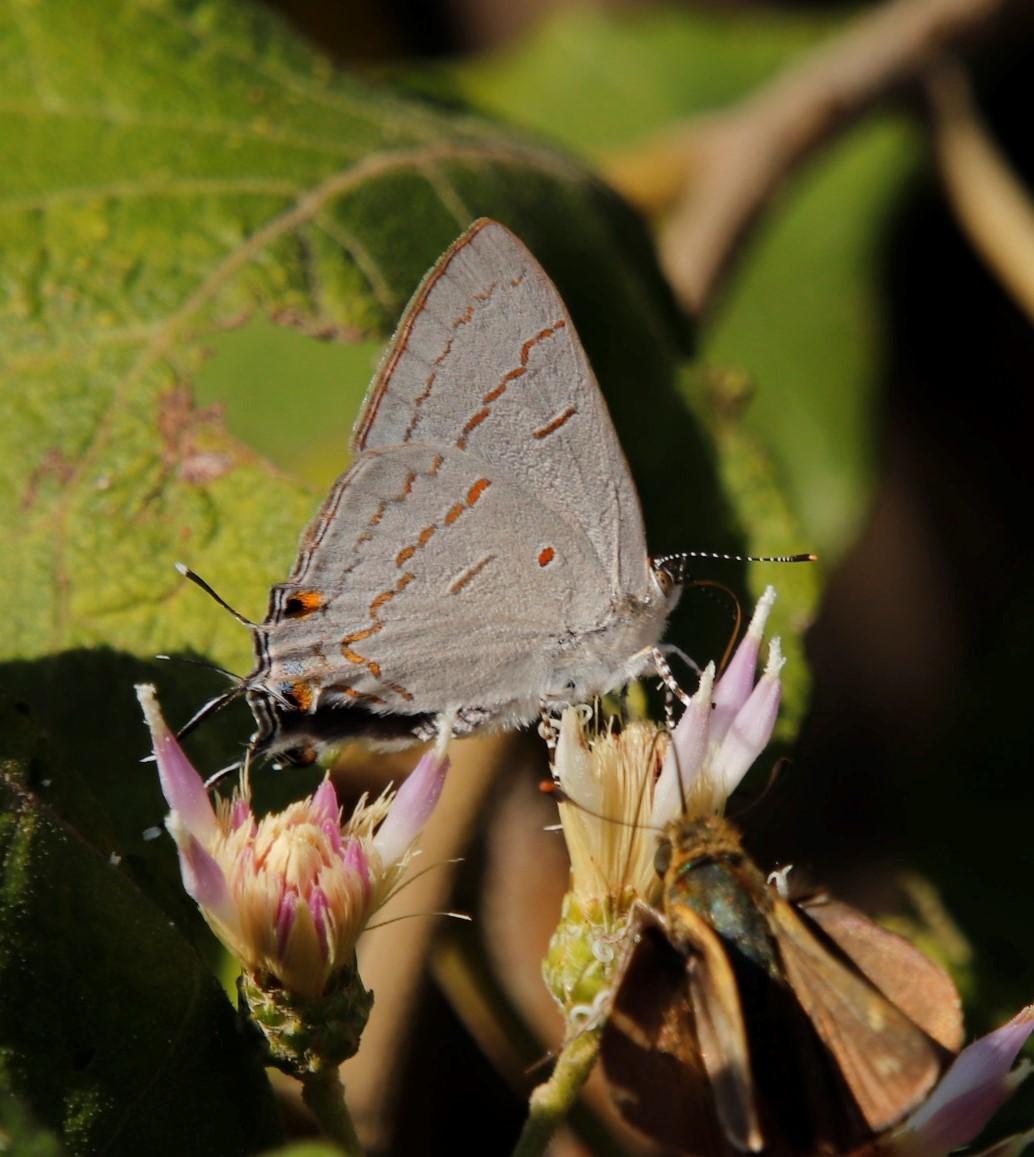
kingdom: Animalia
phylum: Arthropoda
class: Insecta
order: Lepidoptera
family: Lycaenidae
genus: Hypolycaena
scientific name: Hypolycaena philippus
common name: Common hairstreak
